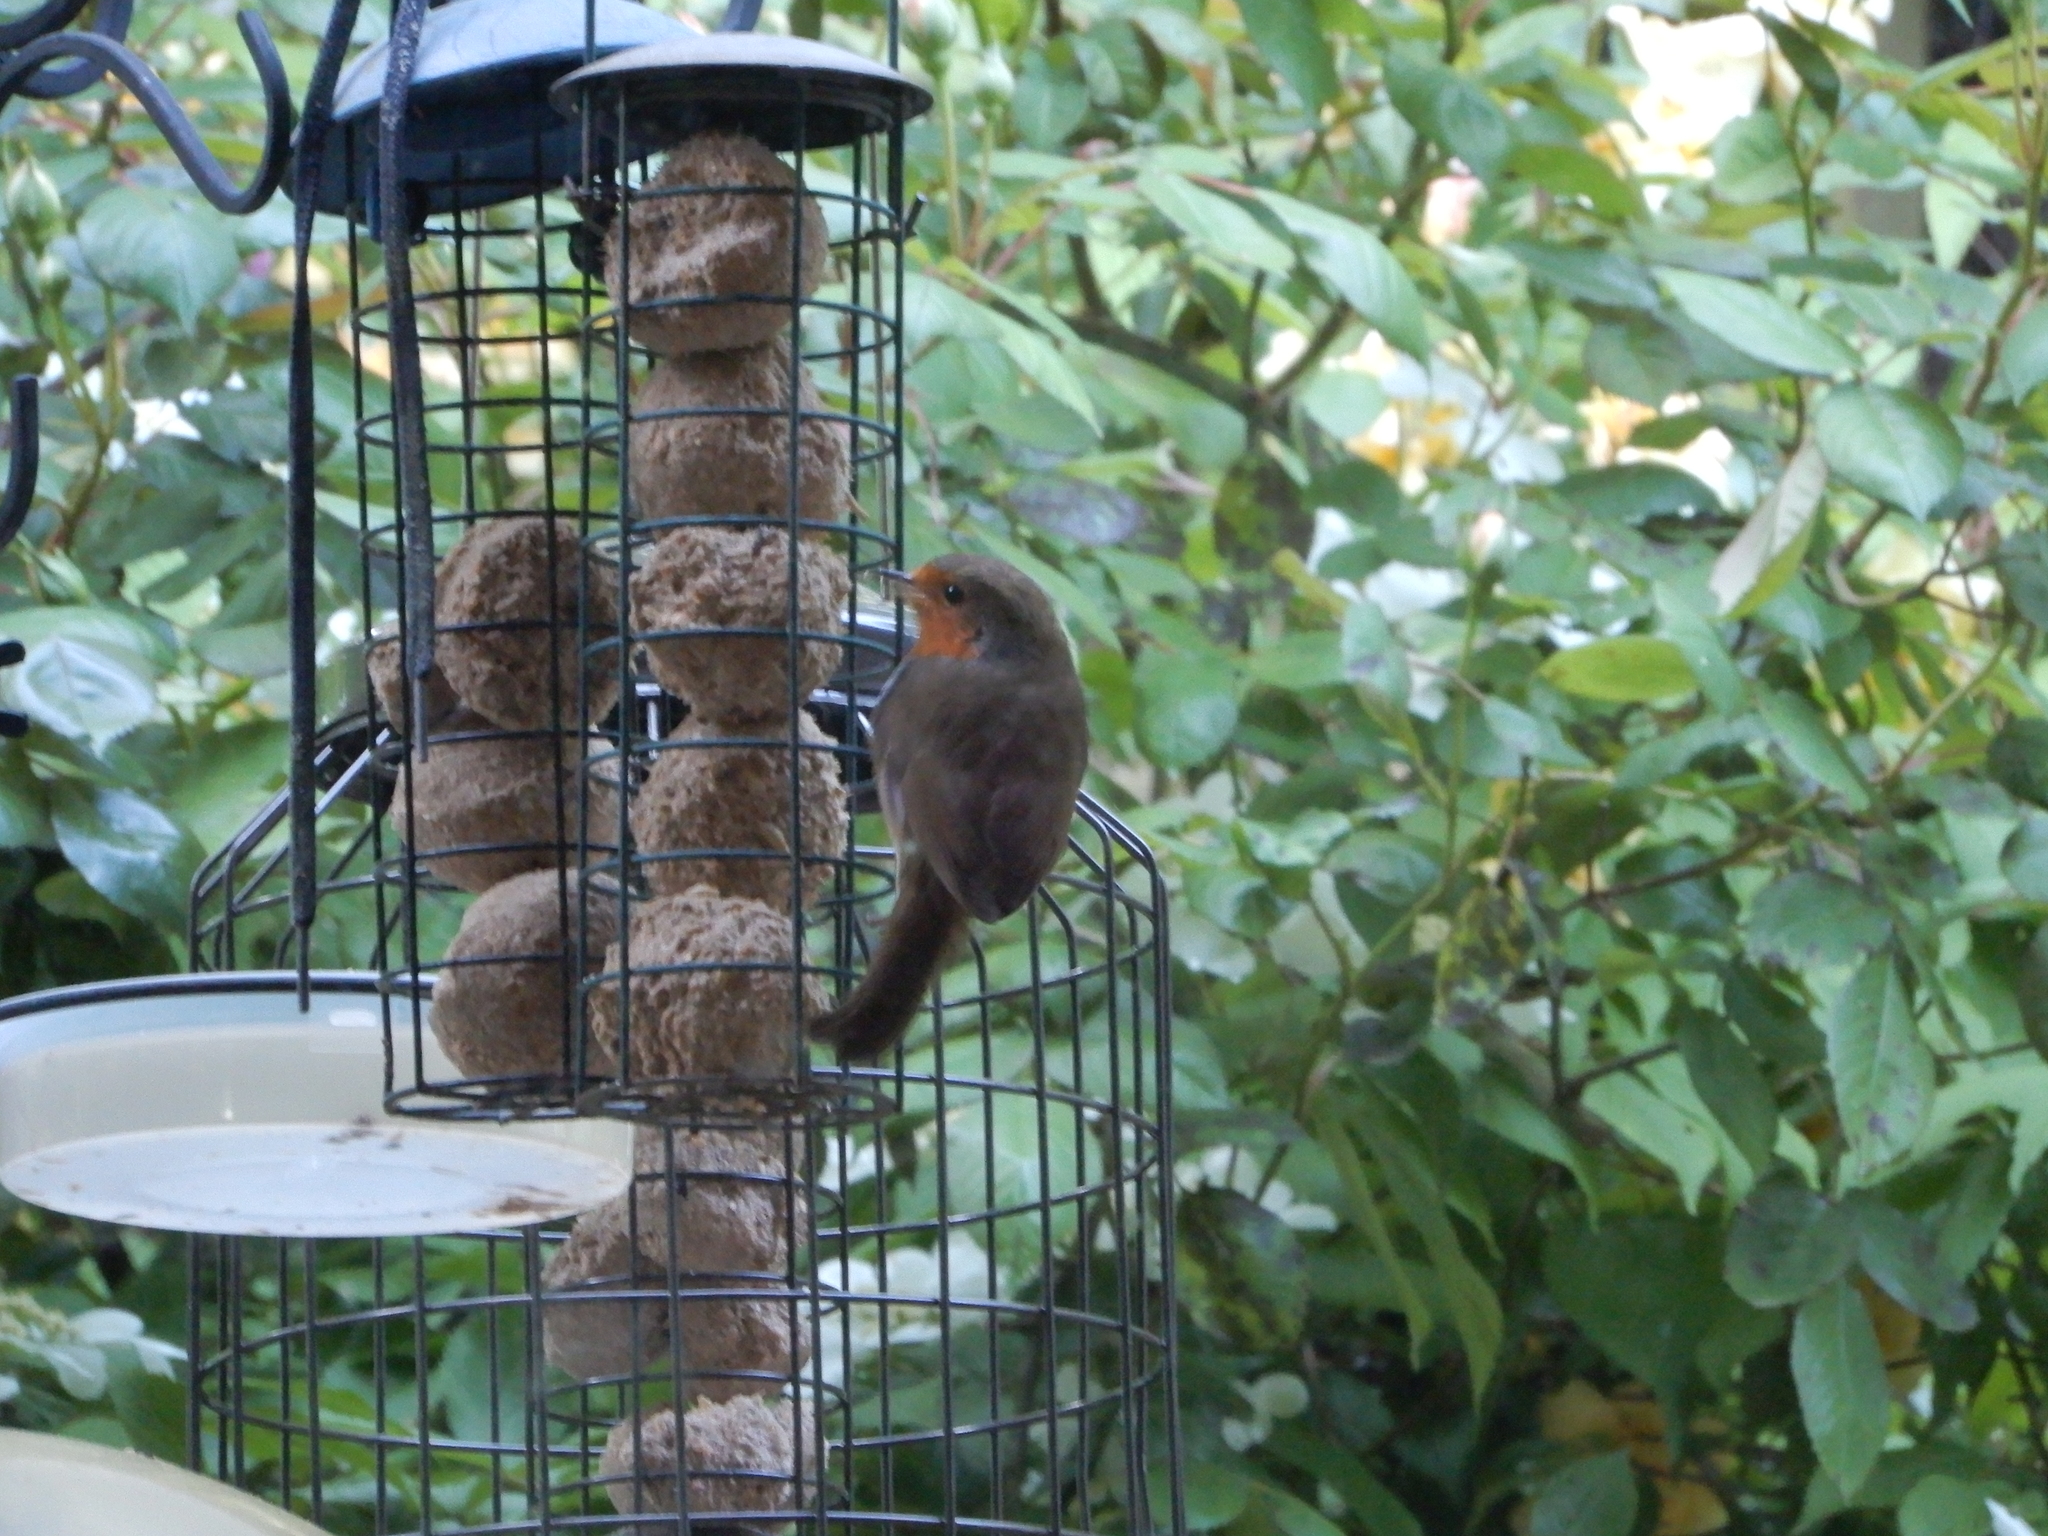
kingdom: Animalia
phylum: Chordata
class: Aves
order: Passeriformes
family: Muscicapidae
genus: Erithacus
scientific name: Erithacus rubecula
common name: European robin
